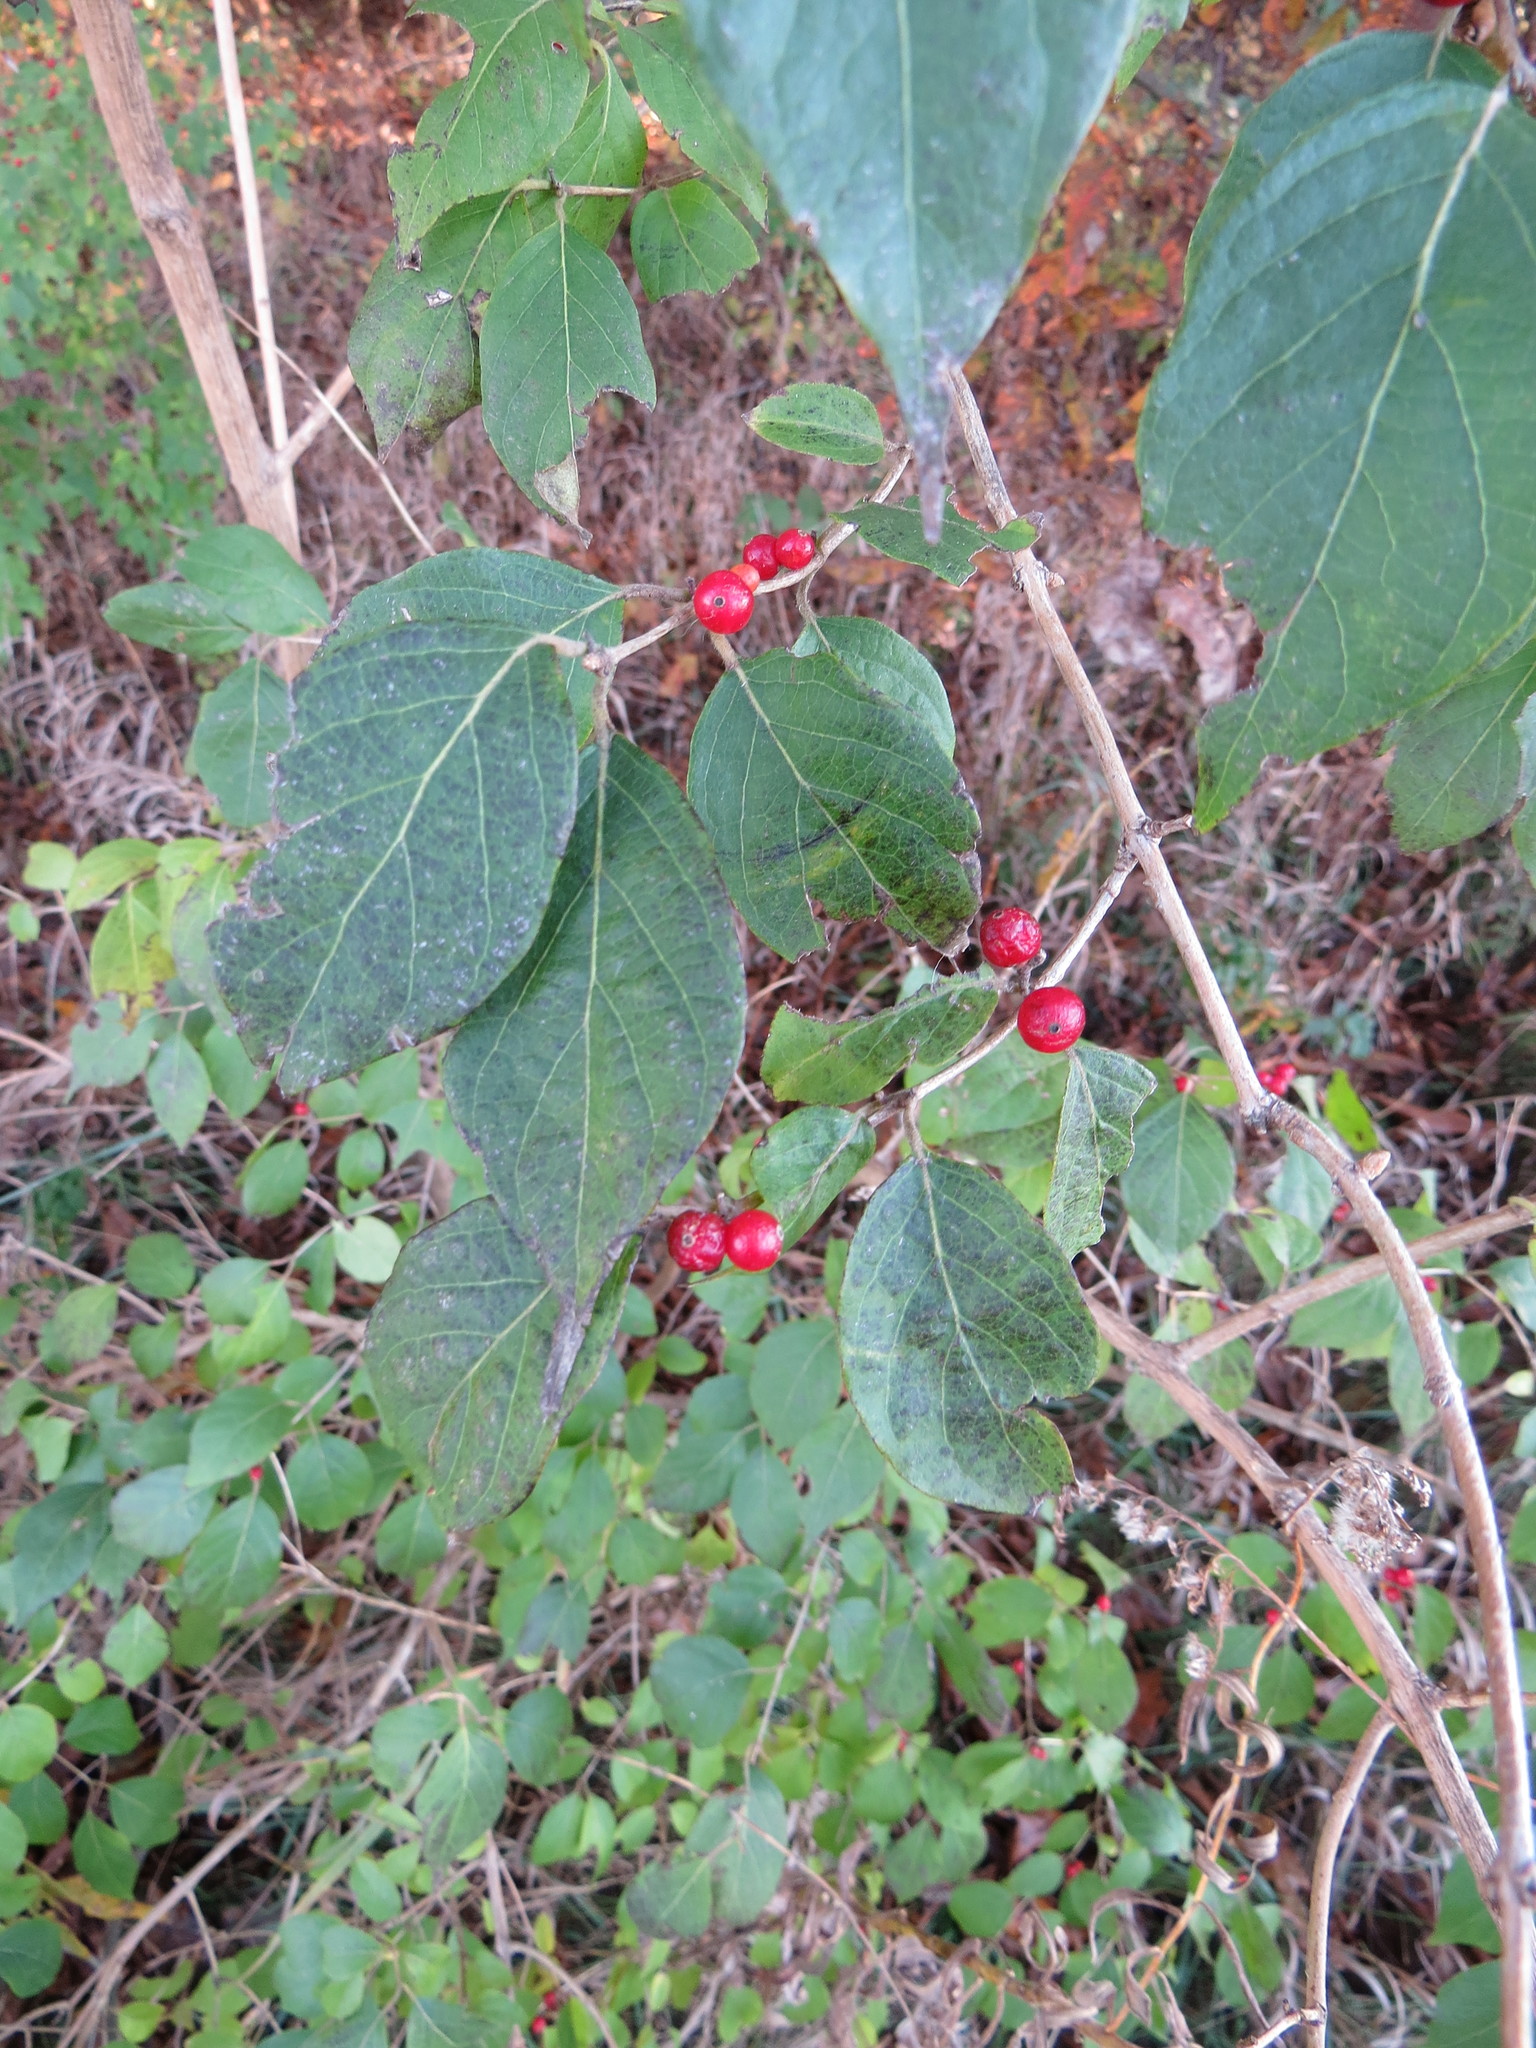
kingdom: Plantae
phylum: Tracheophyta
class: Magnoliopsida
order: Dipsacales
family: Caprifoliaceae
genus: Lonicera
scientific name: Lonicera maackii
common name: Amur honeysuckle
